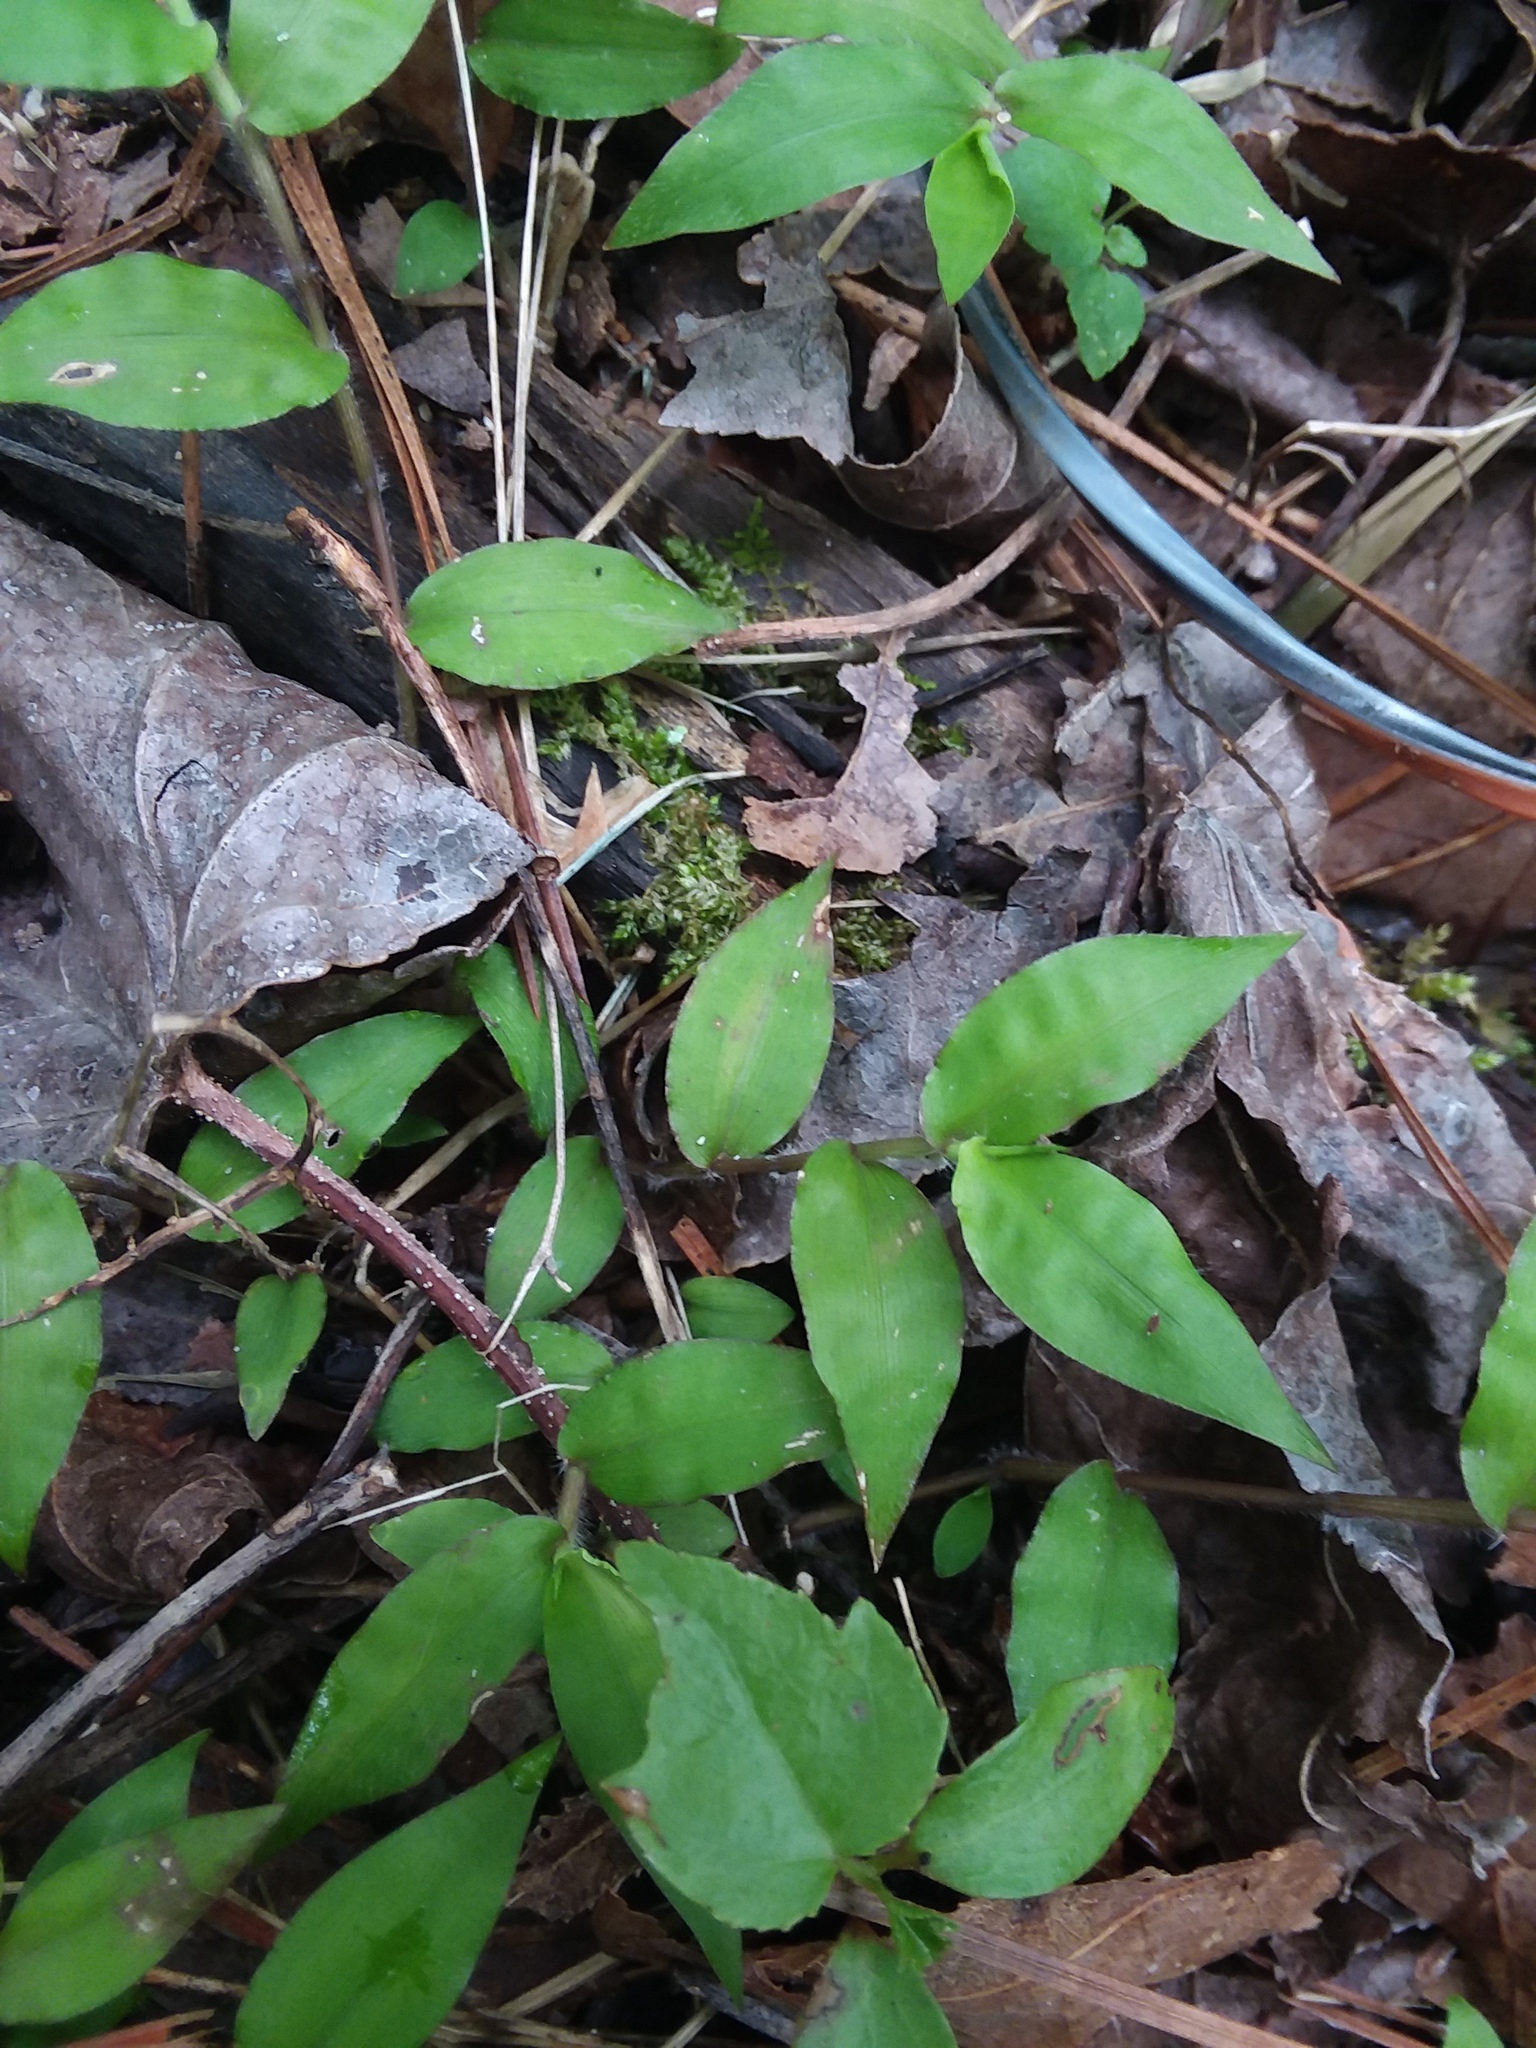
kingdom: Plantae
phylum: Tracheophyta
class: Liliopsida
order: Poales
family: Poaceae
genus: Oplismenus
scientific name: Oplismenus compositus
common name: Running mountain grass
